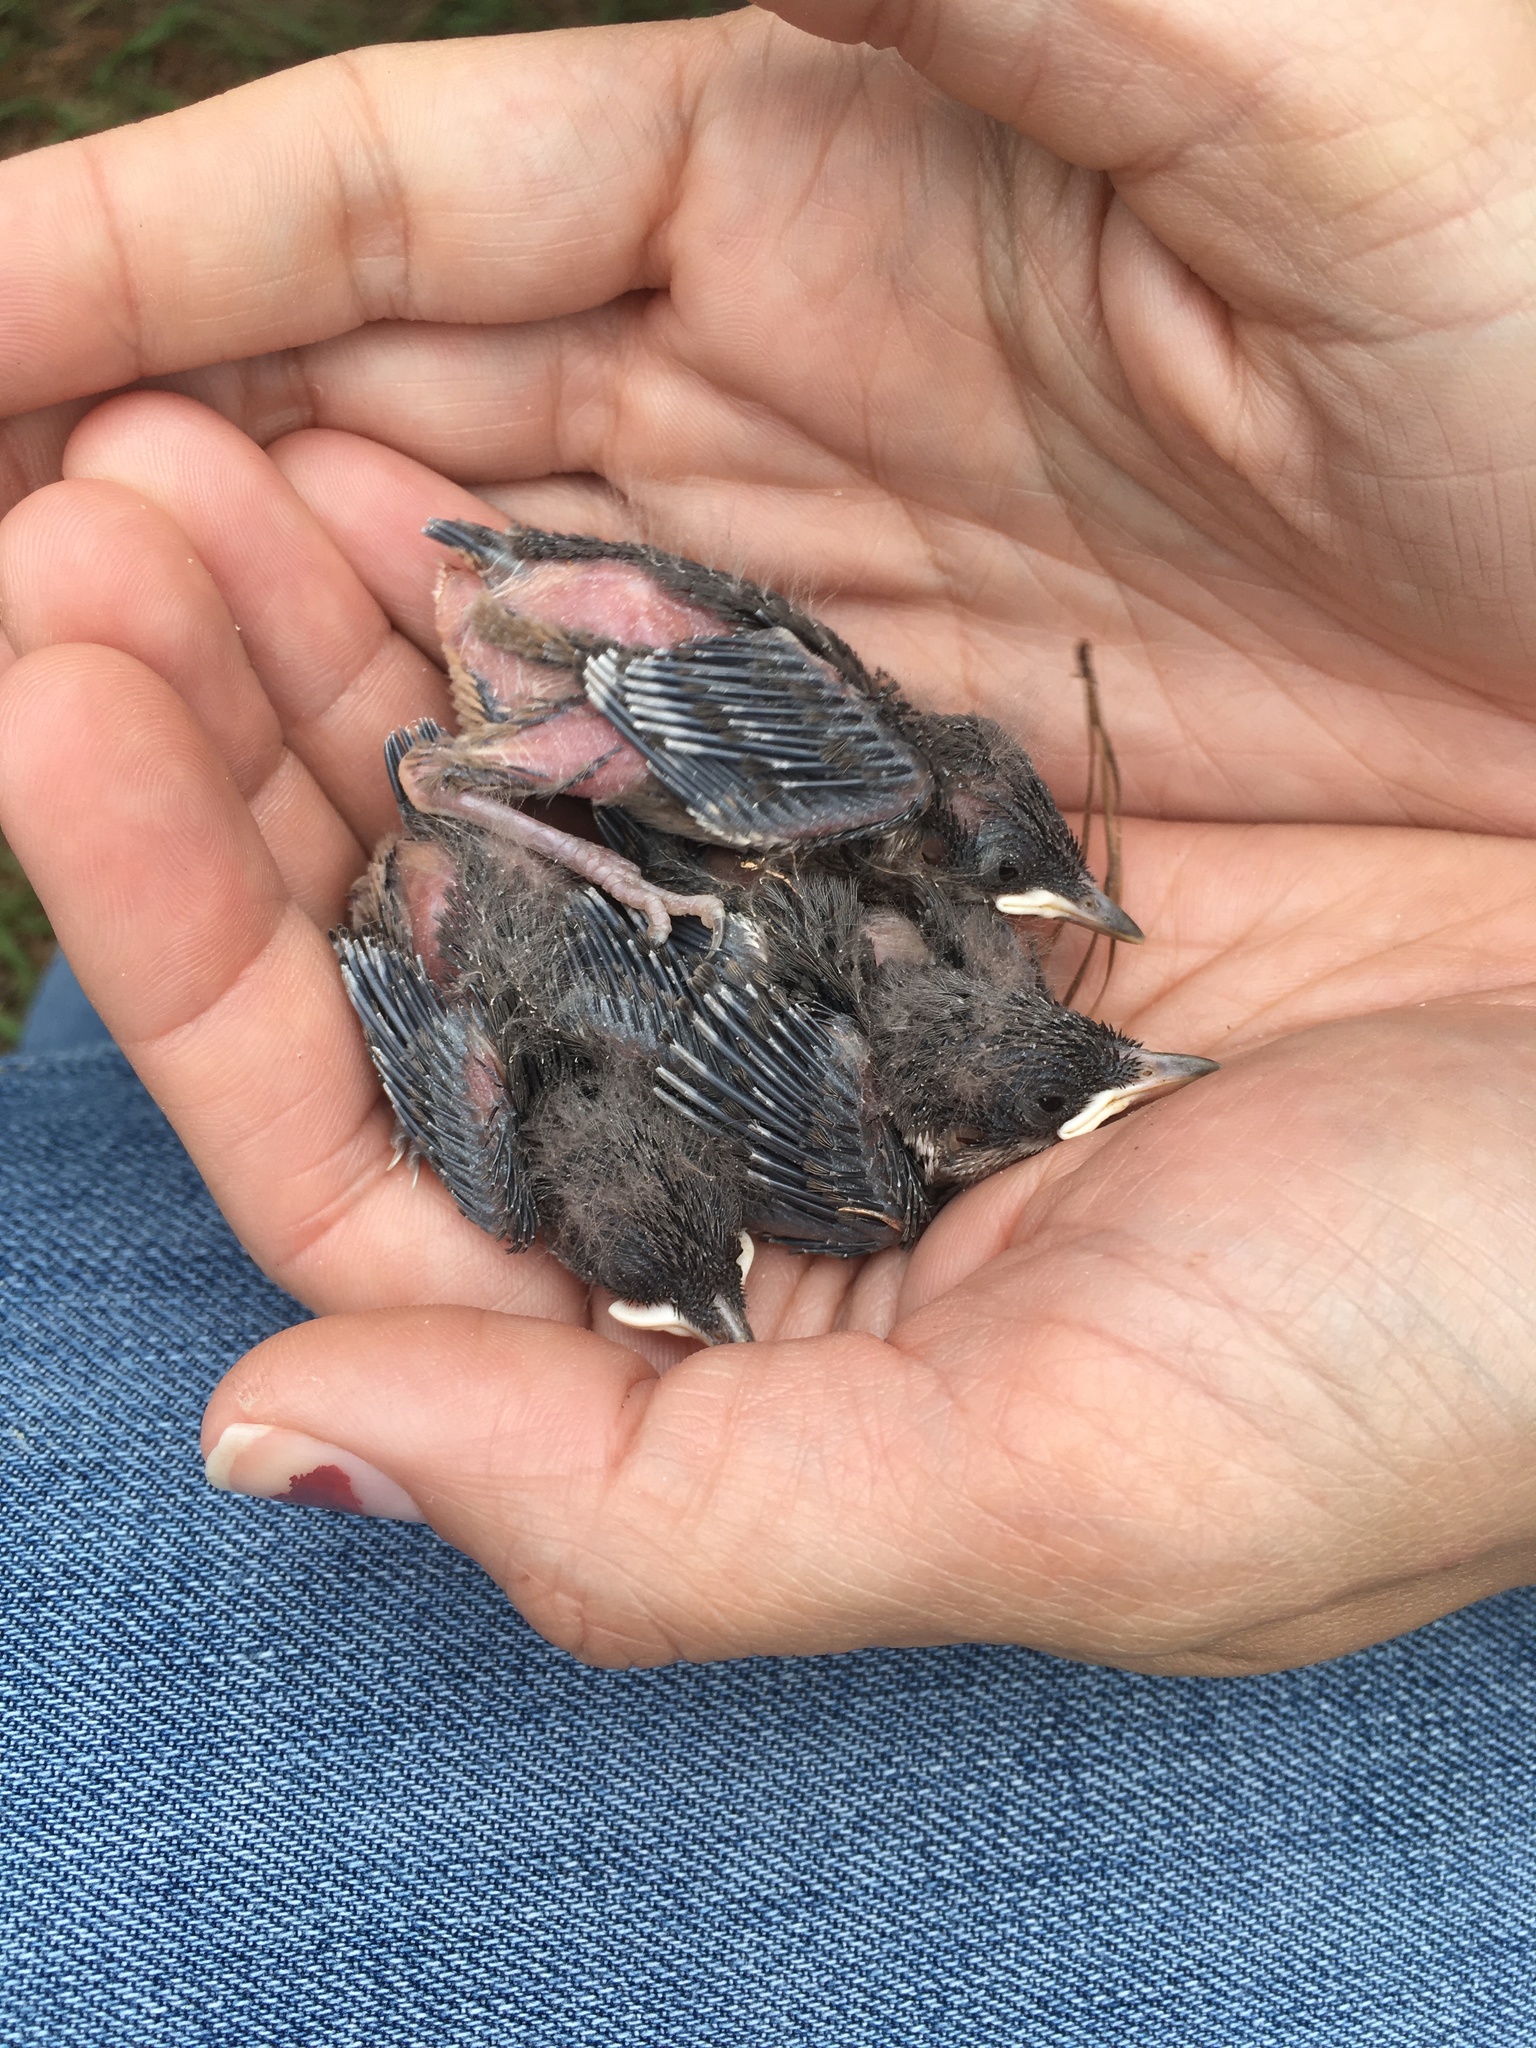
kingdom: Animalia
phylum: Chordata
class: Aves
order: Passeriformes
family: Sittidae
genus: Sitta
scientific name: Sitta pusilla
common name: Brown-headed nuthatch
